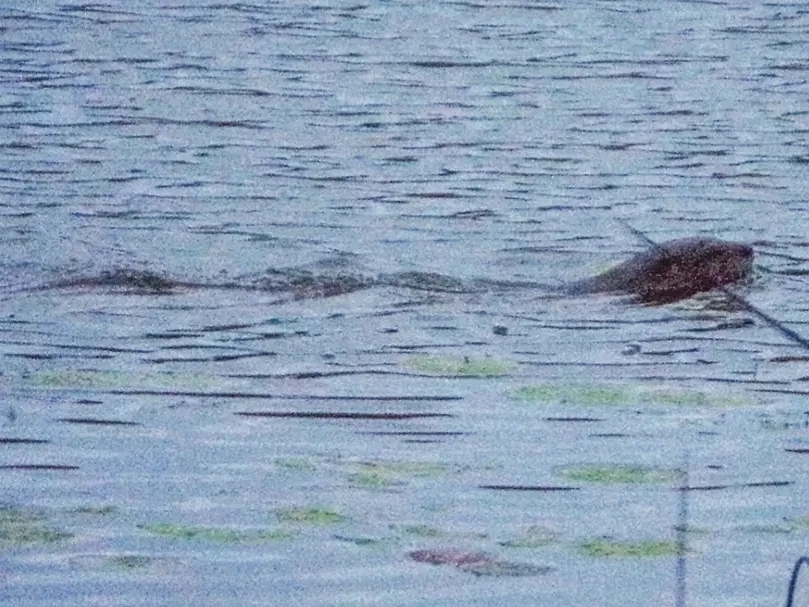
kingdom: Animalia
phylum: Chordata
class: Mammalia
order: Carnivora
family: Mustelidae
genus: Lontra
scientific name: Lontra canadensis
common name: North american river otter
